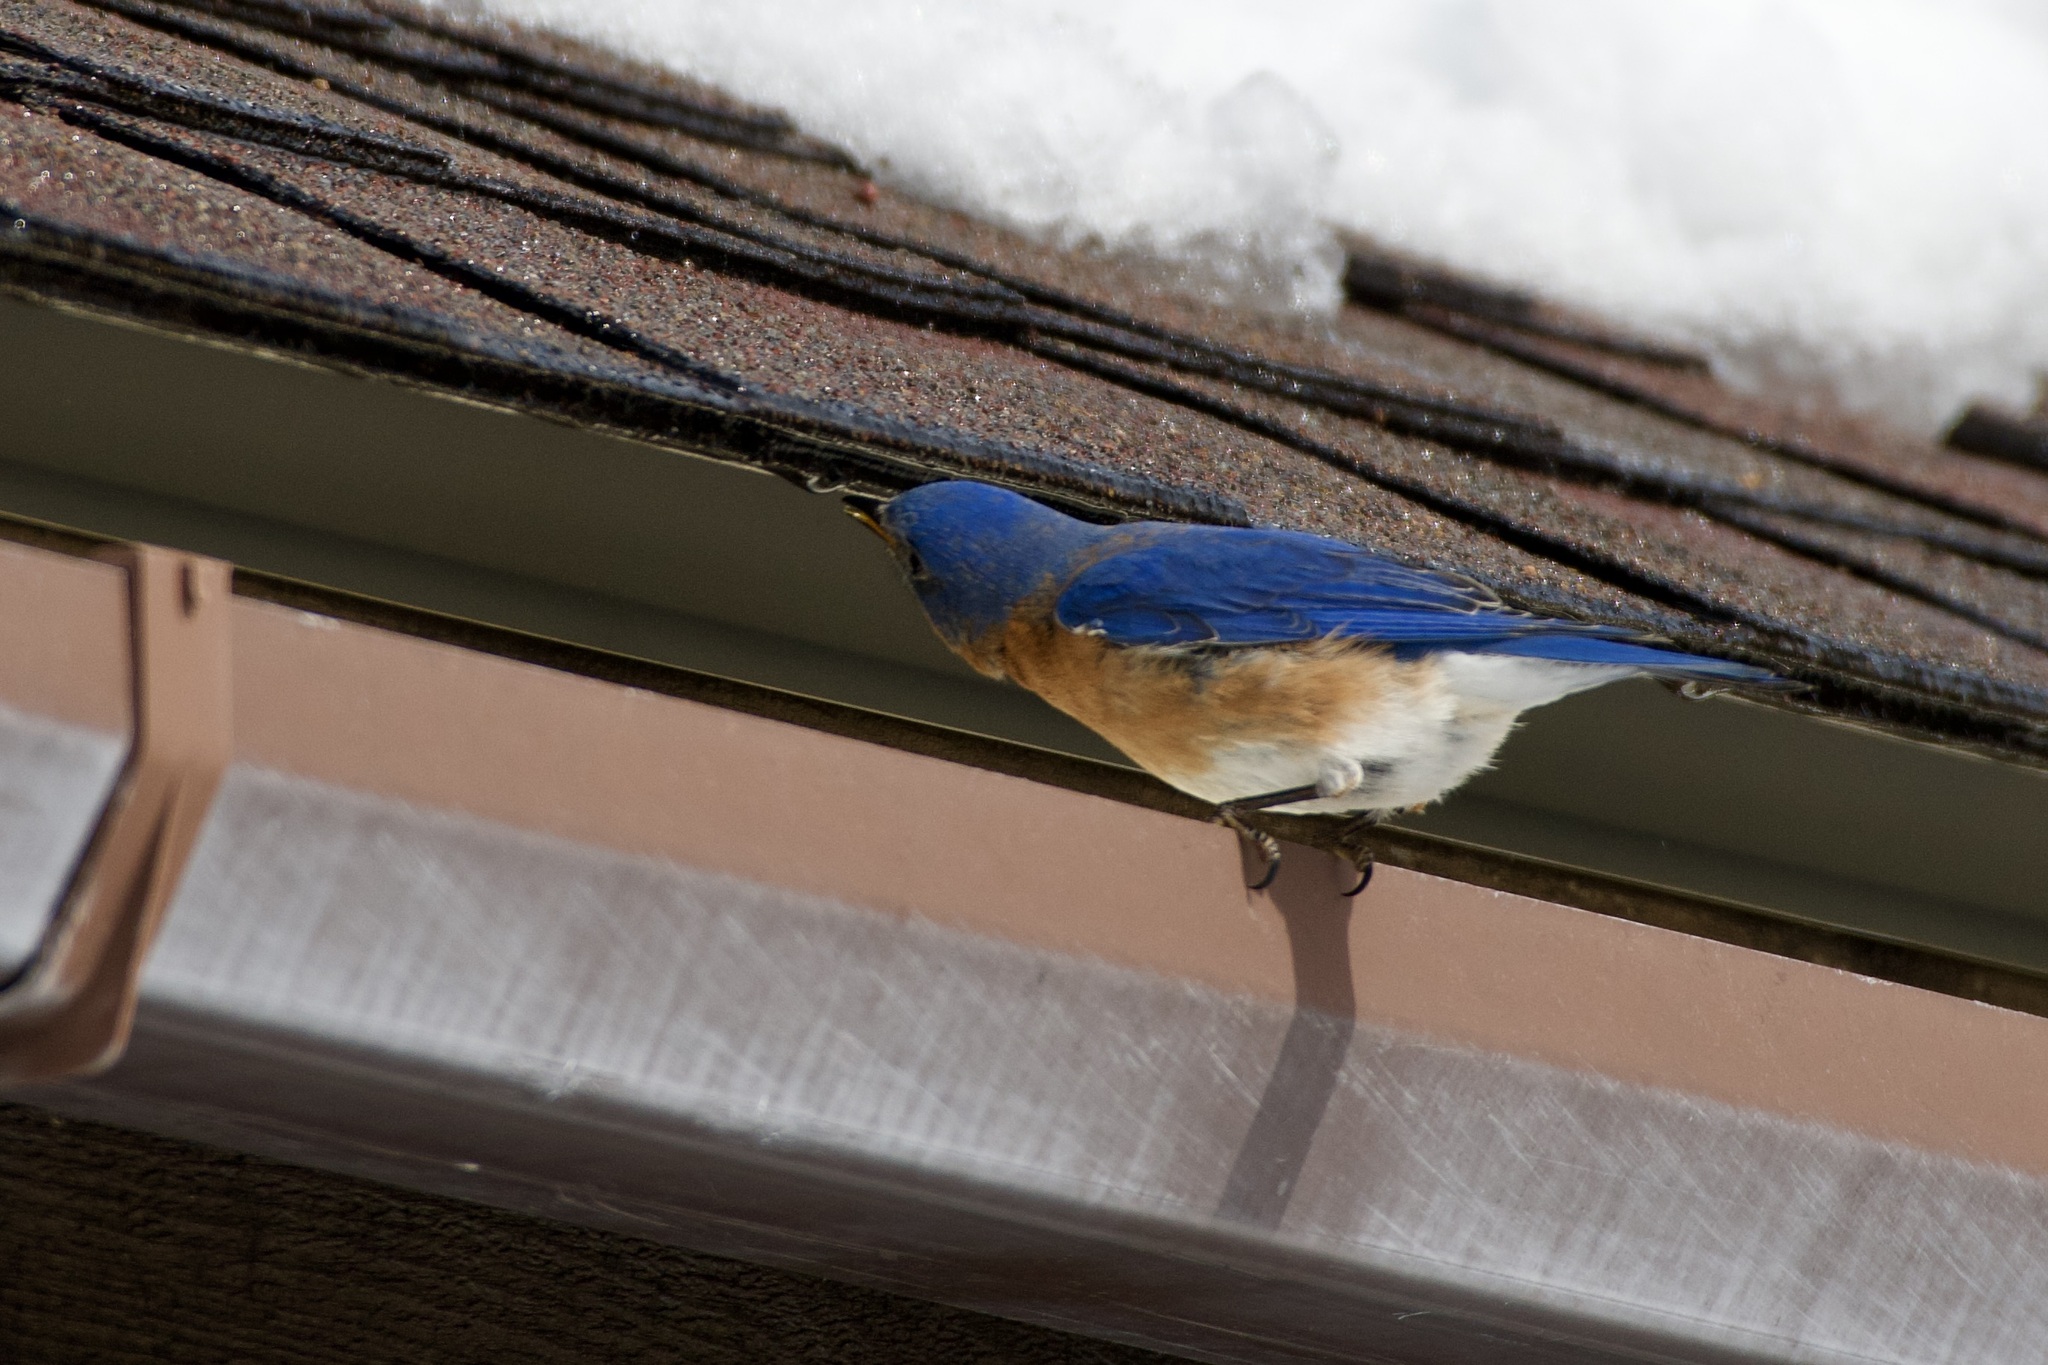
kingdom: Animalia
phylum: Chordata
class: Aves
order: Passeriformes
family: Turdidae
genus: Sialia
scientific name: Sialia sialis
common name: Eastern bluebird
